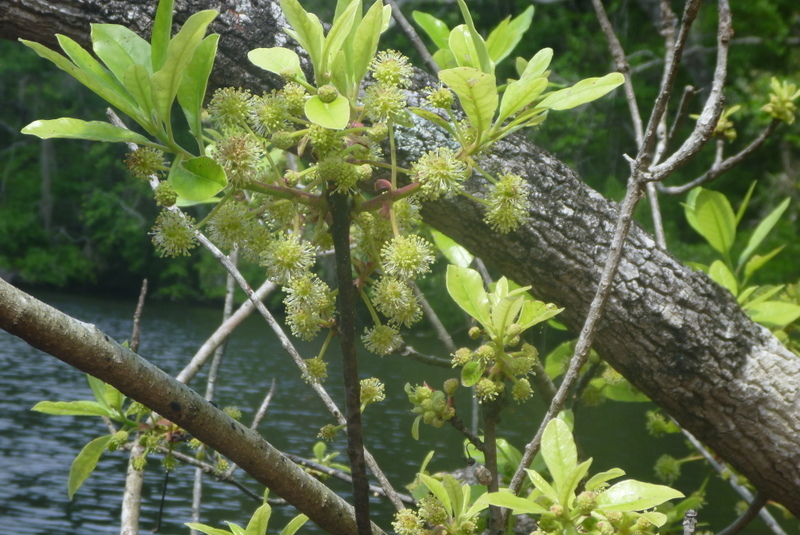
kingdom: Plantae
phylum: Tracheophyta
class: Magnoliopsida
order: Cornales
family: Nyssaceae
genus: Nyssa
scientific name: Nyssa ogeche
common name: Ogeechee tupelo
